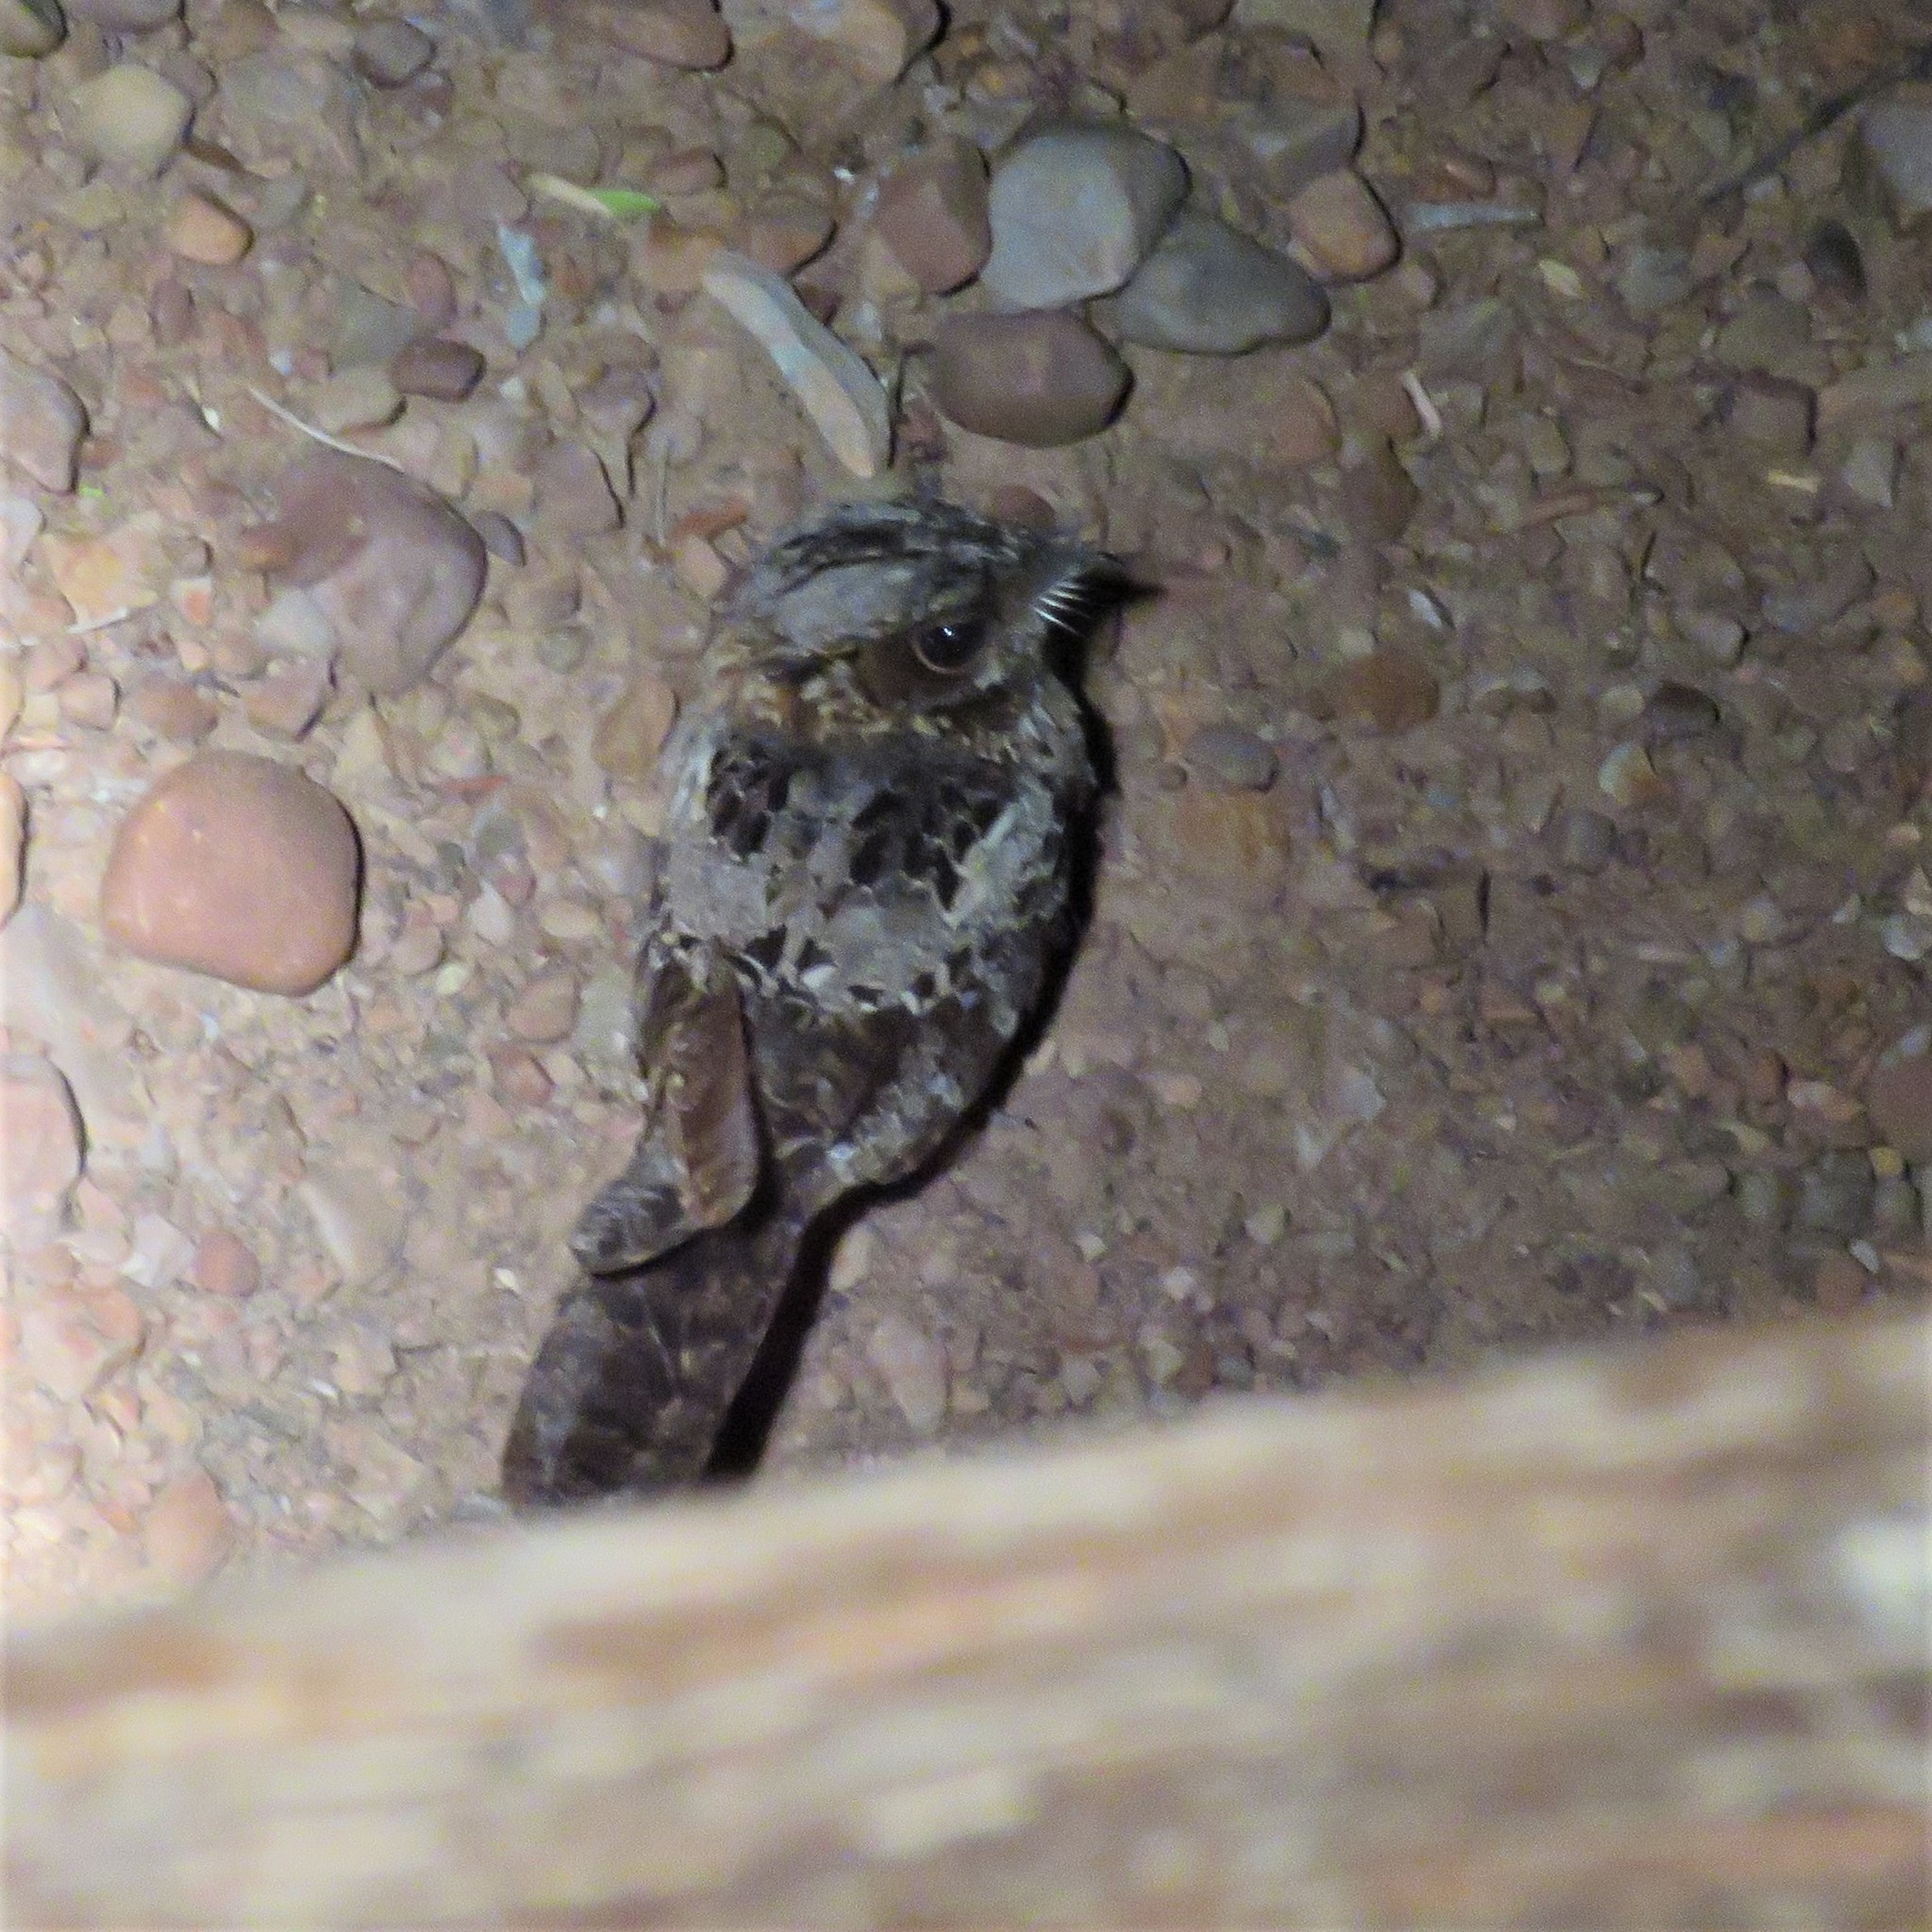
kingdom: Animalia
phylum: Chordata
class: Aves
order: Caprimulgiformes
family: Caprimulgidae
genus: Caprimulgus
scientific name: Caprimulgus pectoralis
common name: Fiery-necked nightjar
